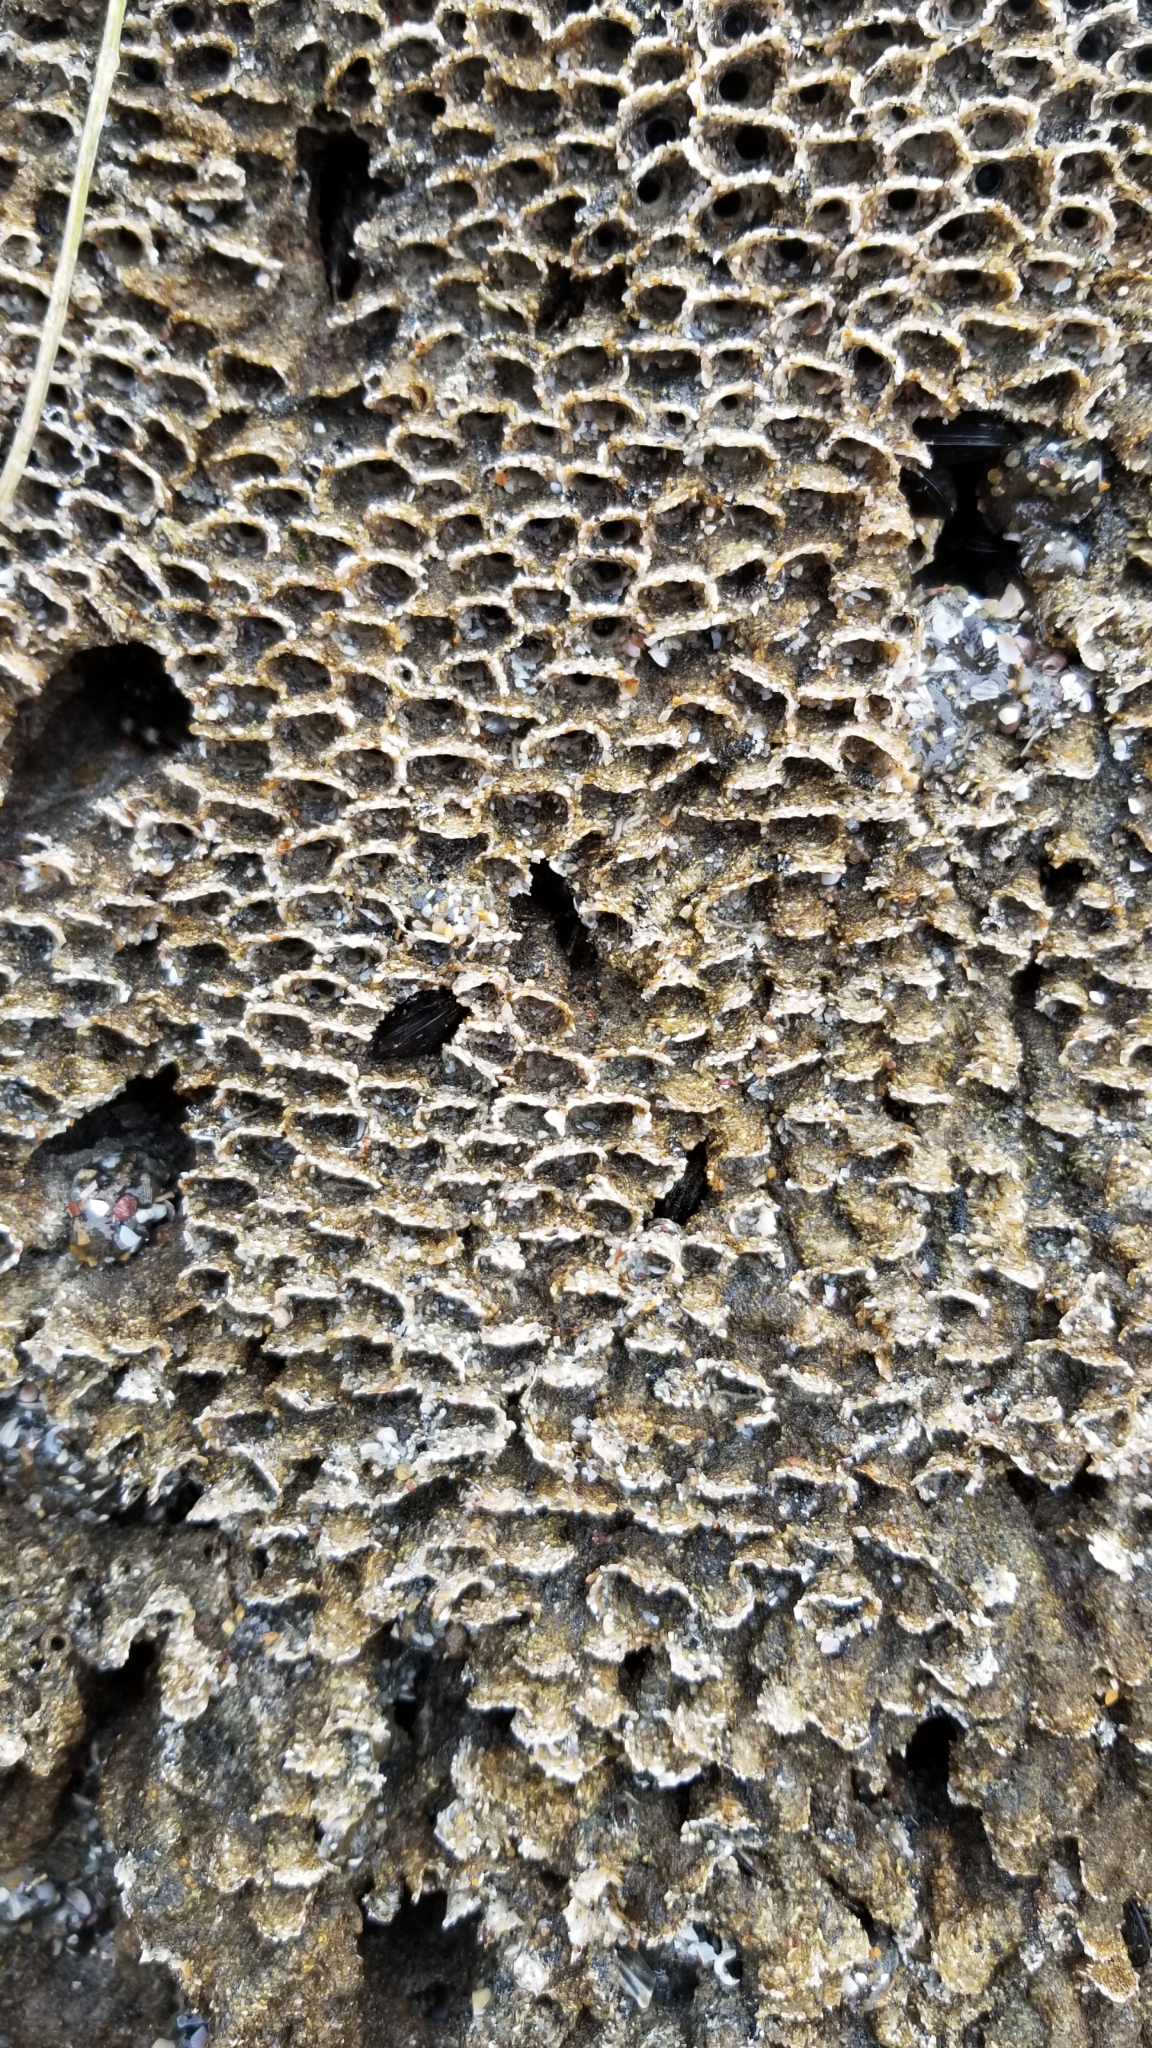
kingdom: Animalia
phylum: Annelida
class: Polychaeta
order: Sabellida
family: Sabellariidae
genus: Phragmatopoma
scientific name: Phragmatopoma californica
